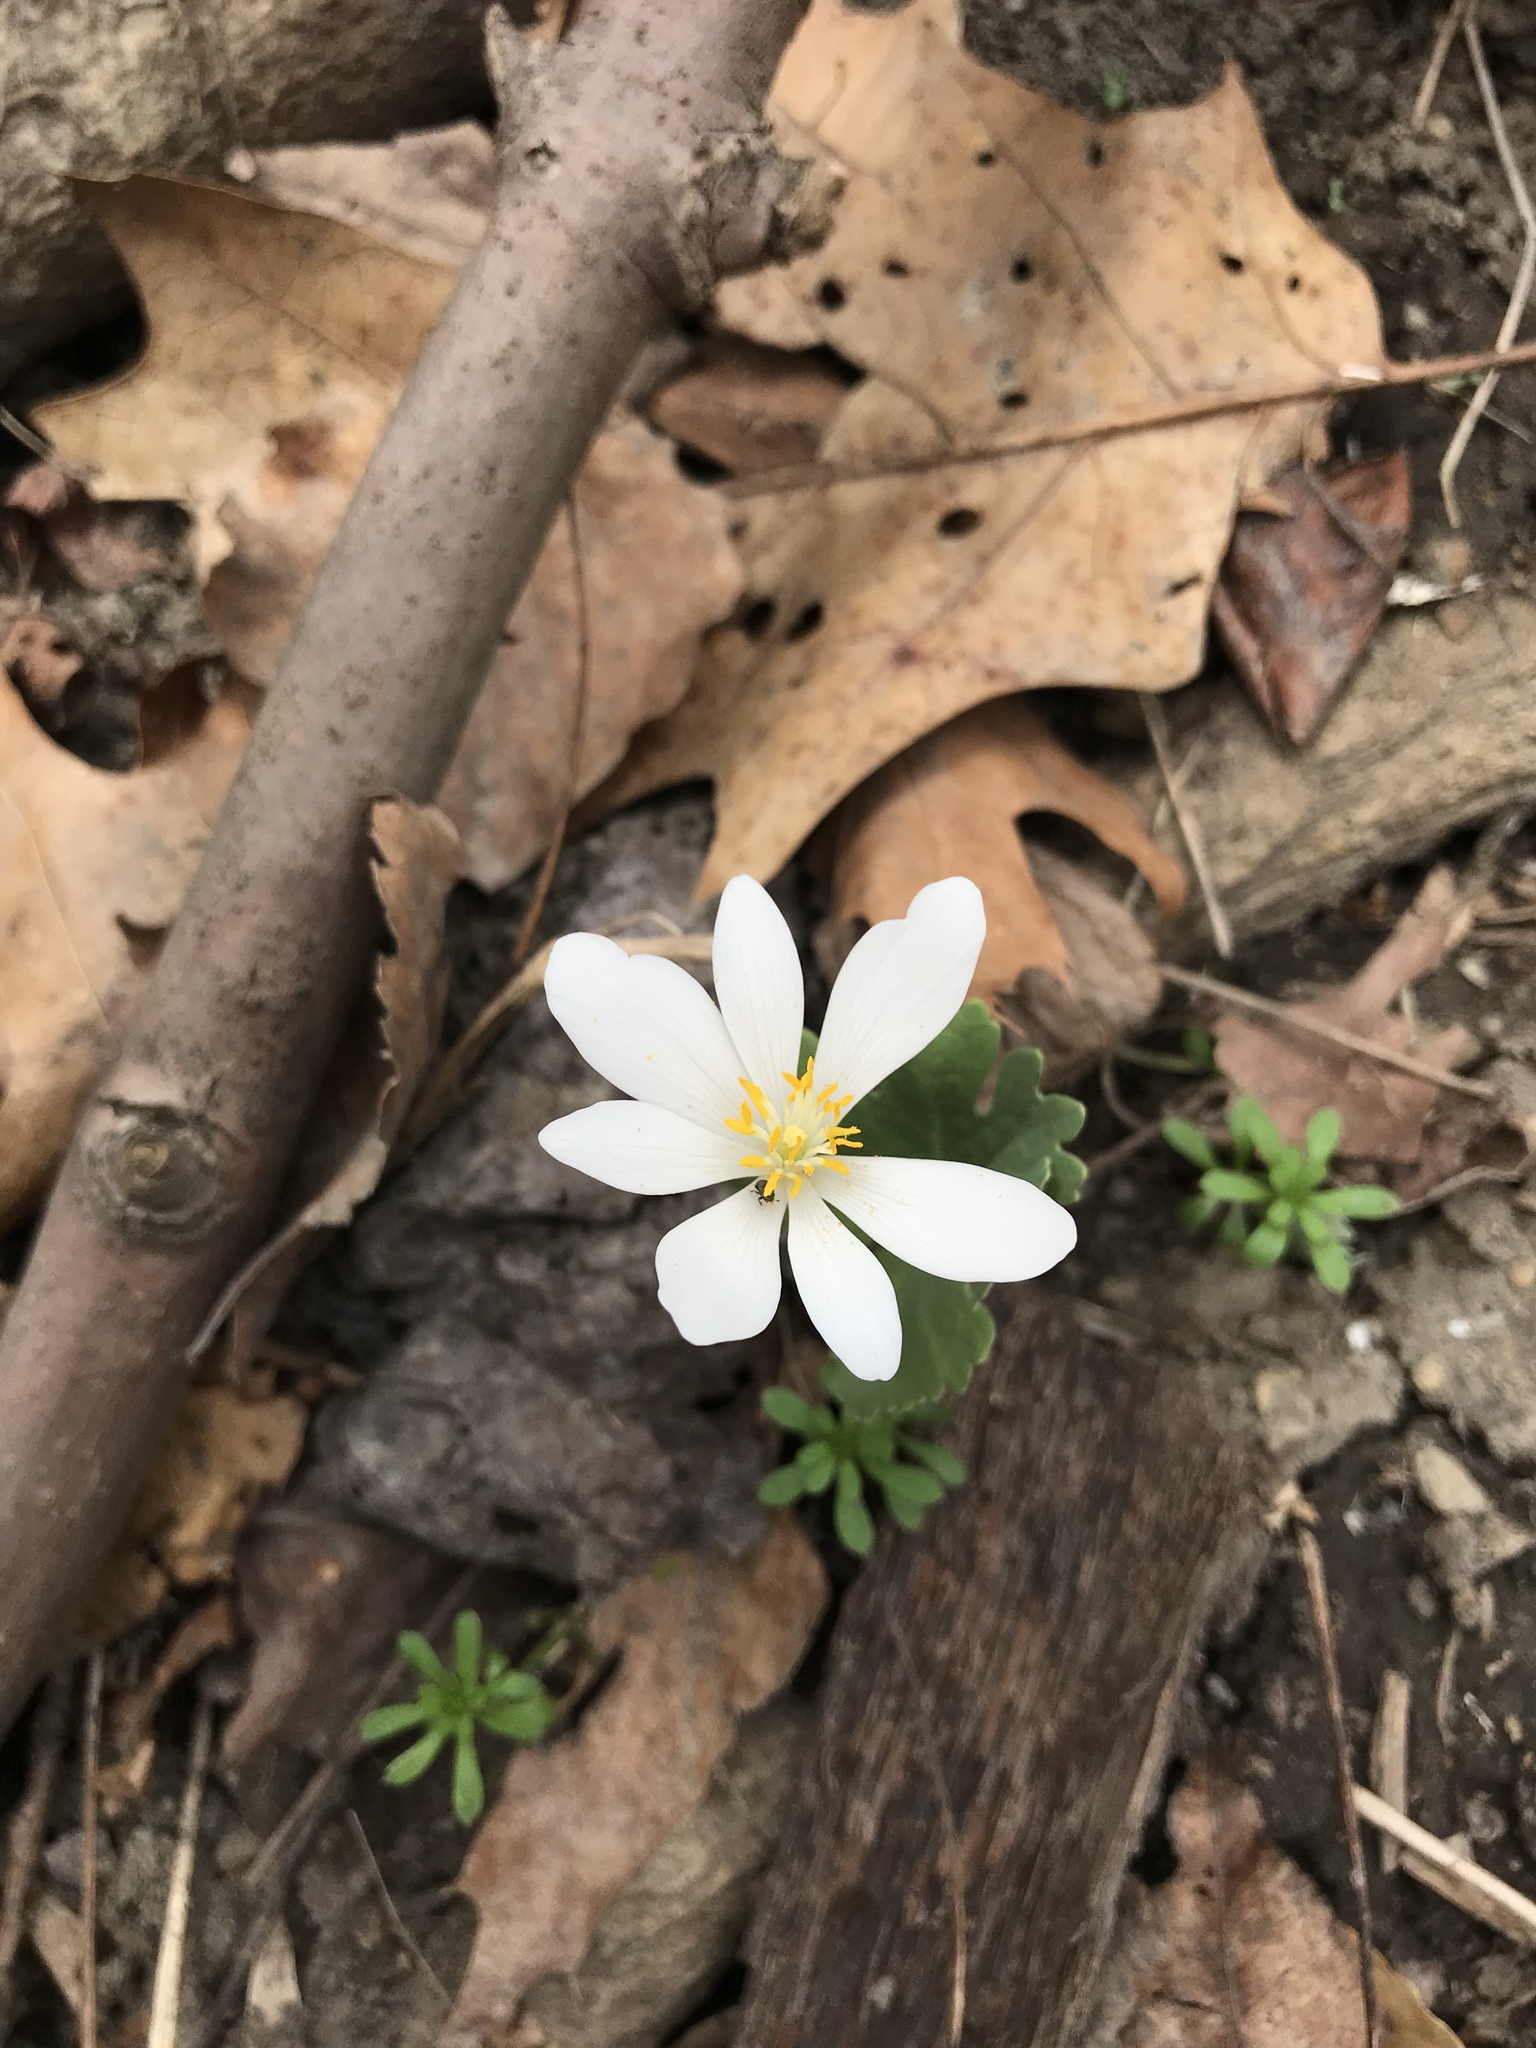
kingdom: Plantae
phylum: Tracheophyta
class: Magnoliopsida
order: Ranunculales
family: Papaveraceae
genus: Sanguinaria
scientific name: Sanguinaria canadensis
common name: Bloodroot
